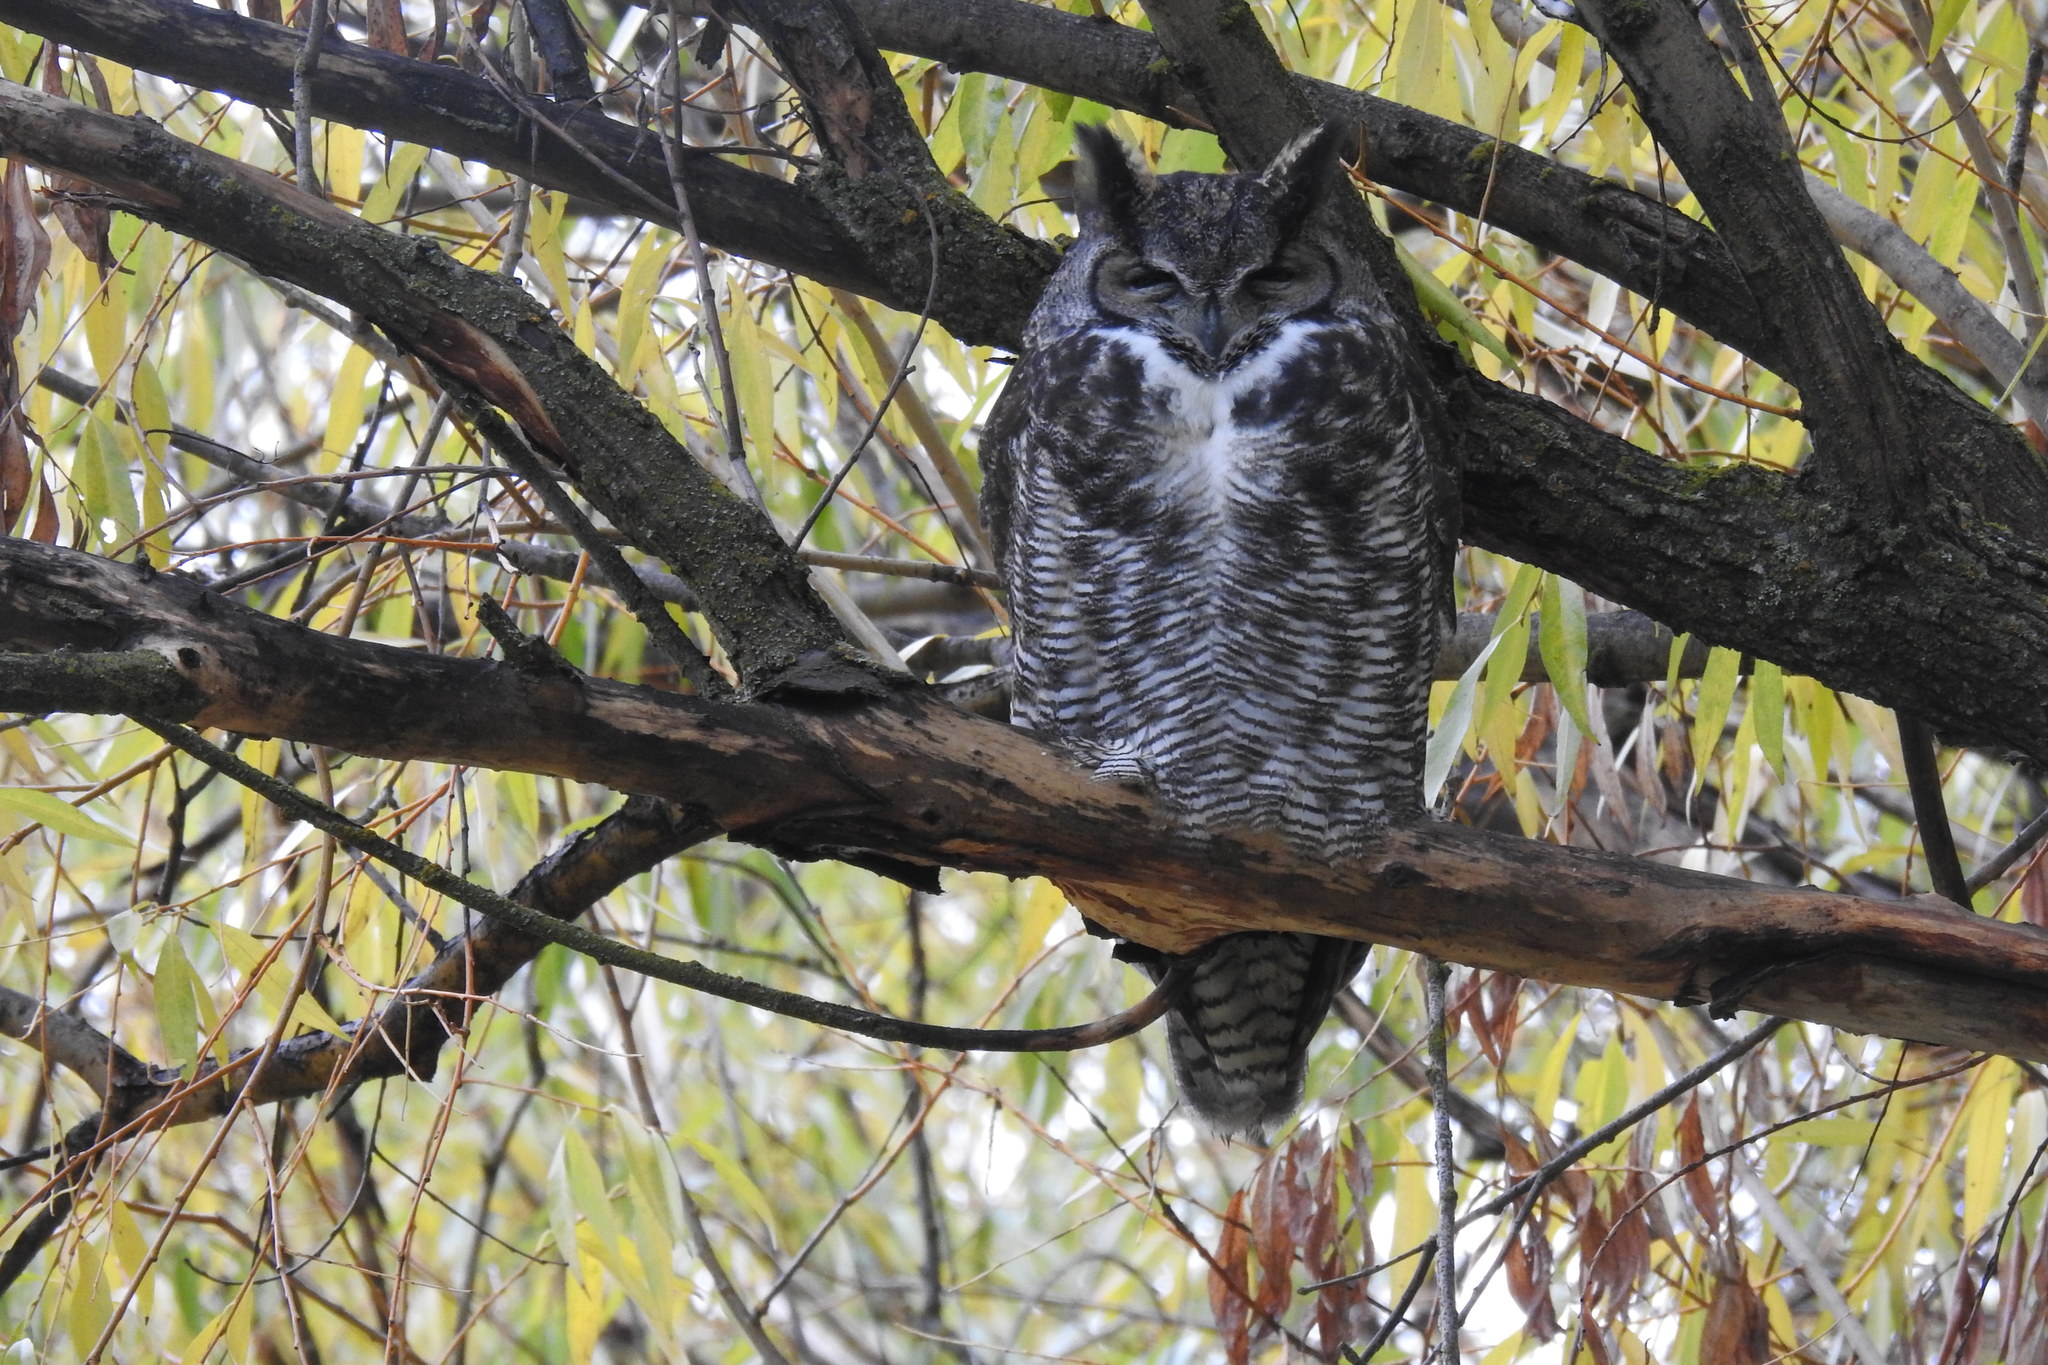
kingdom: Animalia
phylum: Chordata
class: Aves
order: Strigiformes
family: Strigidae
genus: Bubo
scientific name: Bubo virginianus
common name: Great horned owl
